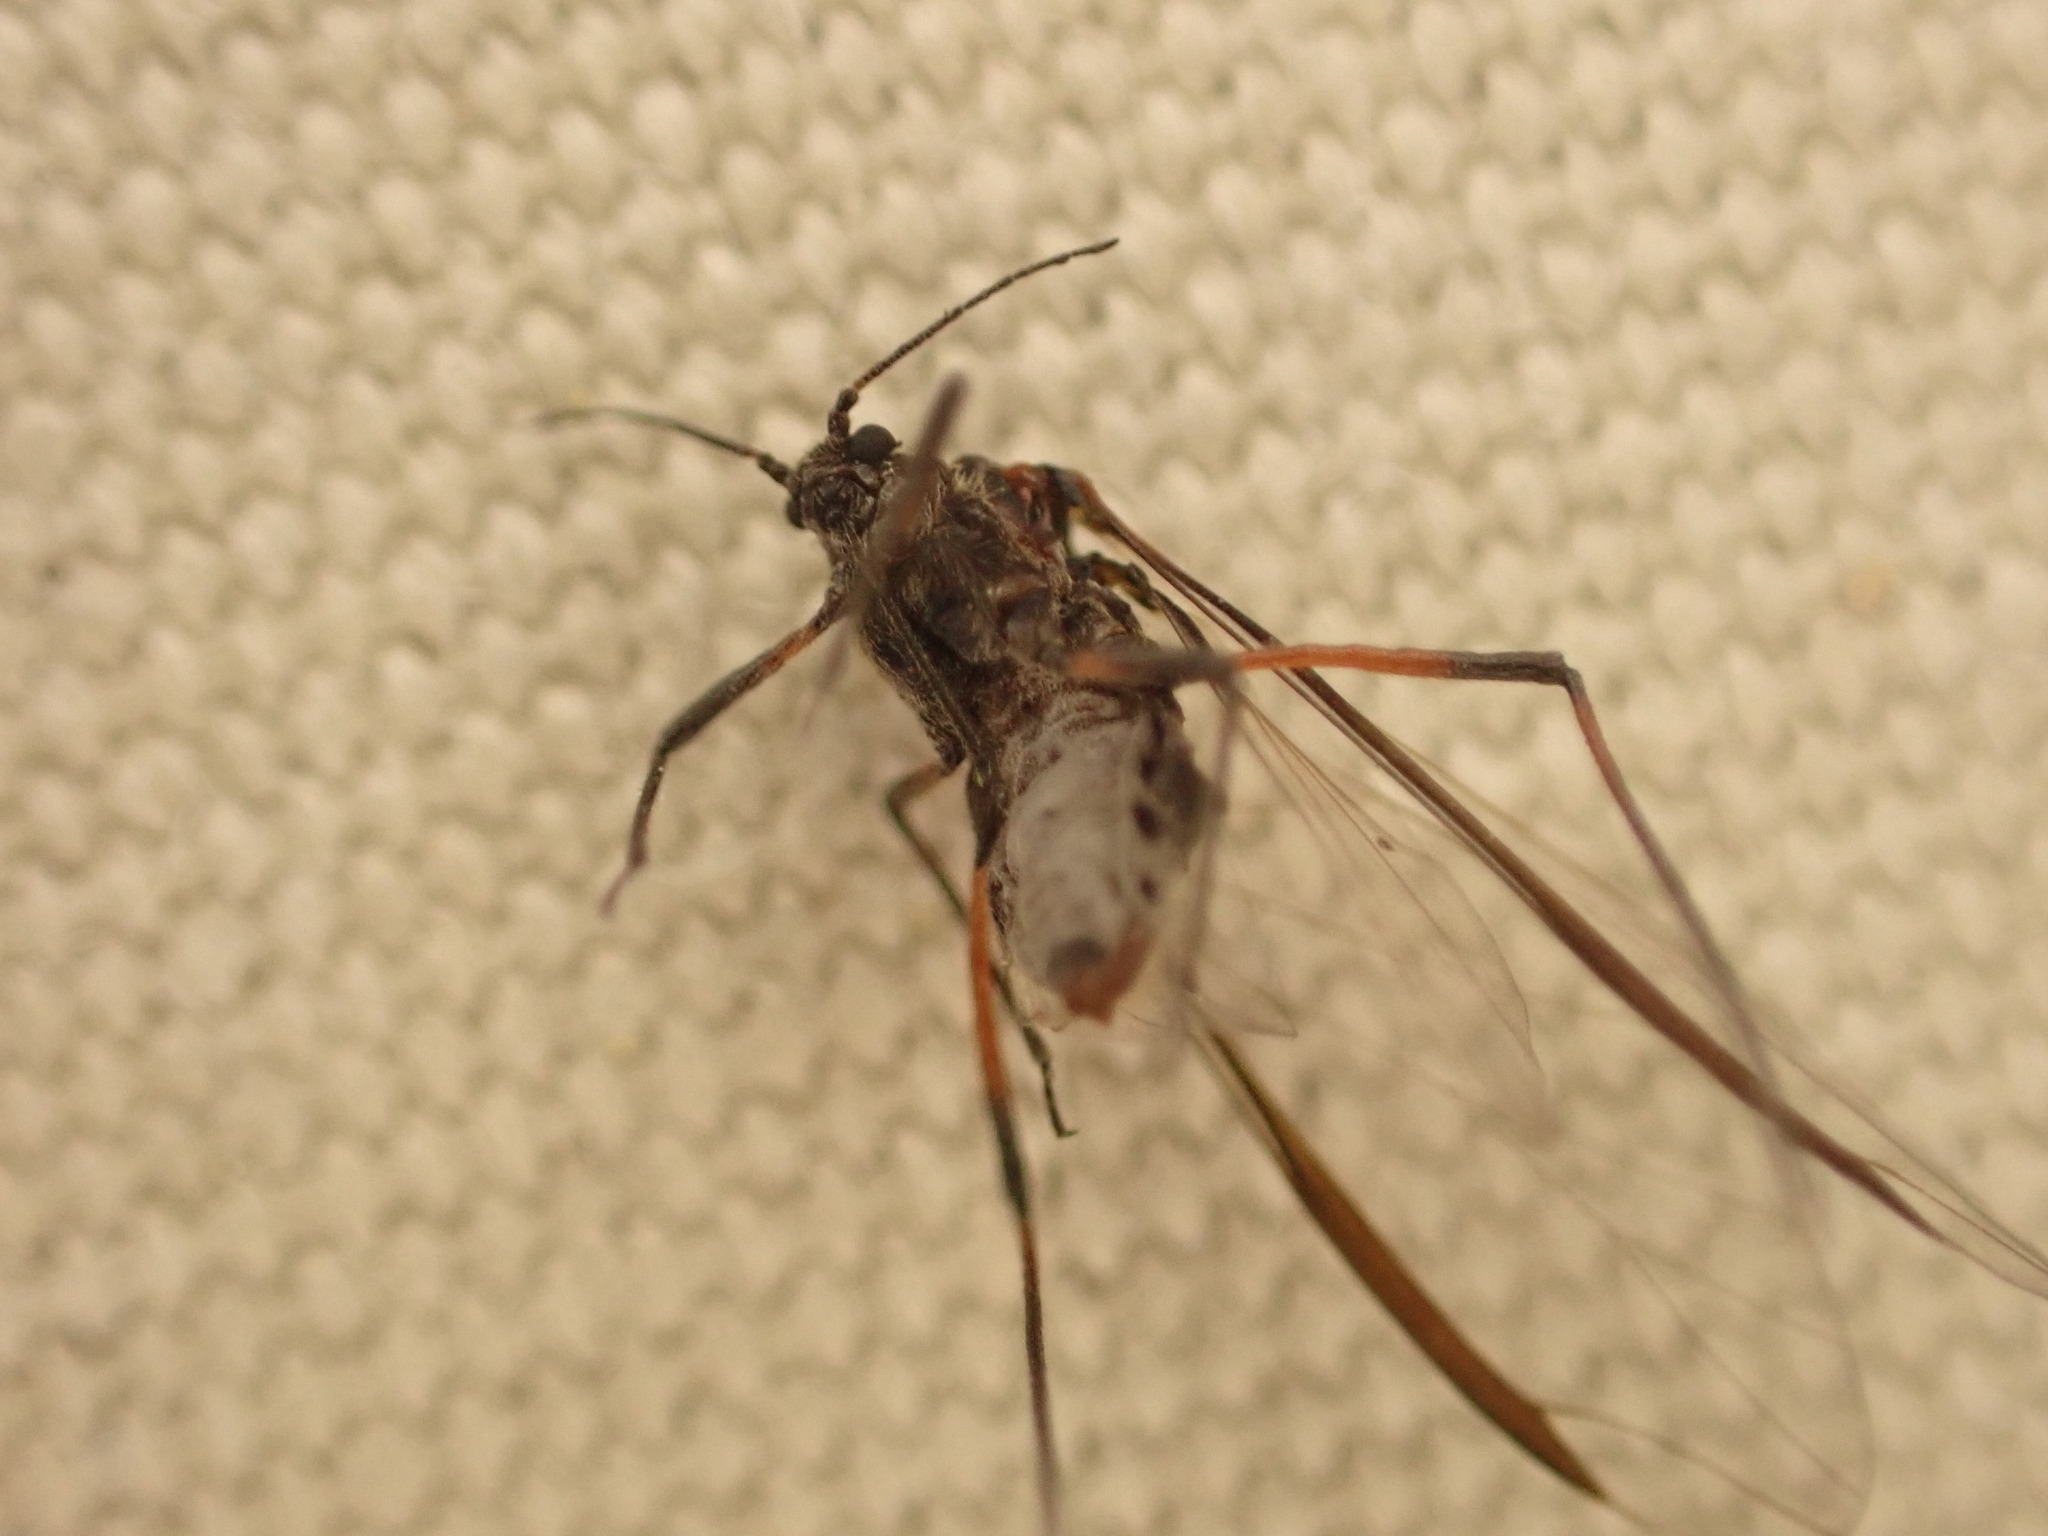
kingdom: Animalia
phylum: Arthropoda
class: Insecta
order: Hemiptera
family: Aphididae
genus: Tuberolachnus
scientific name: Tuberolachnus salignus
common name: Giant willow aphid
